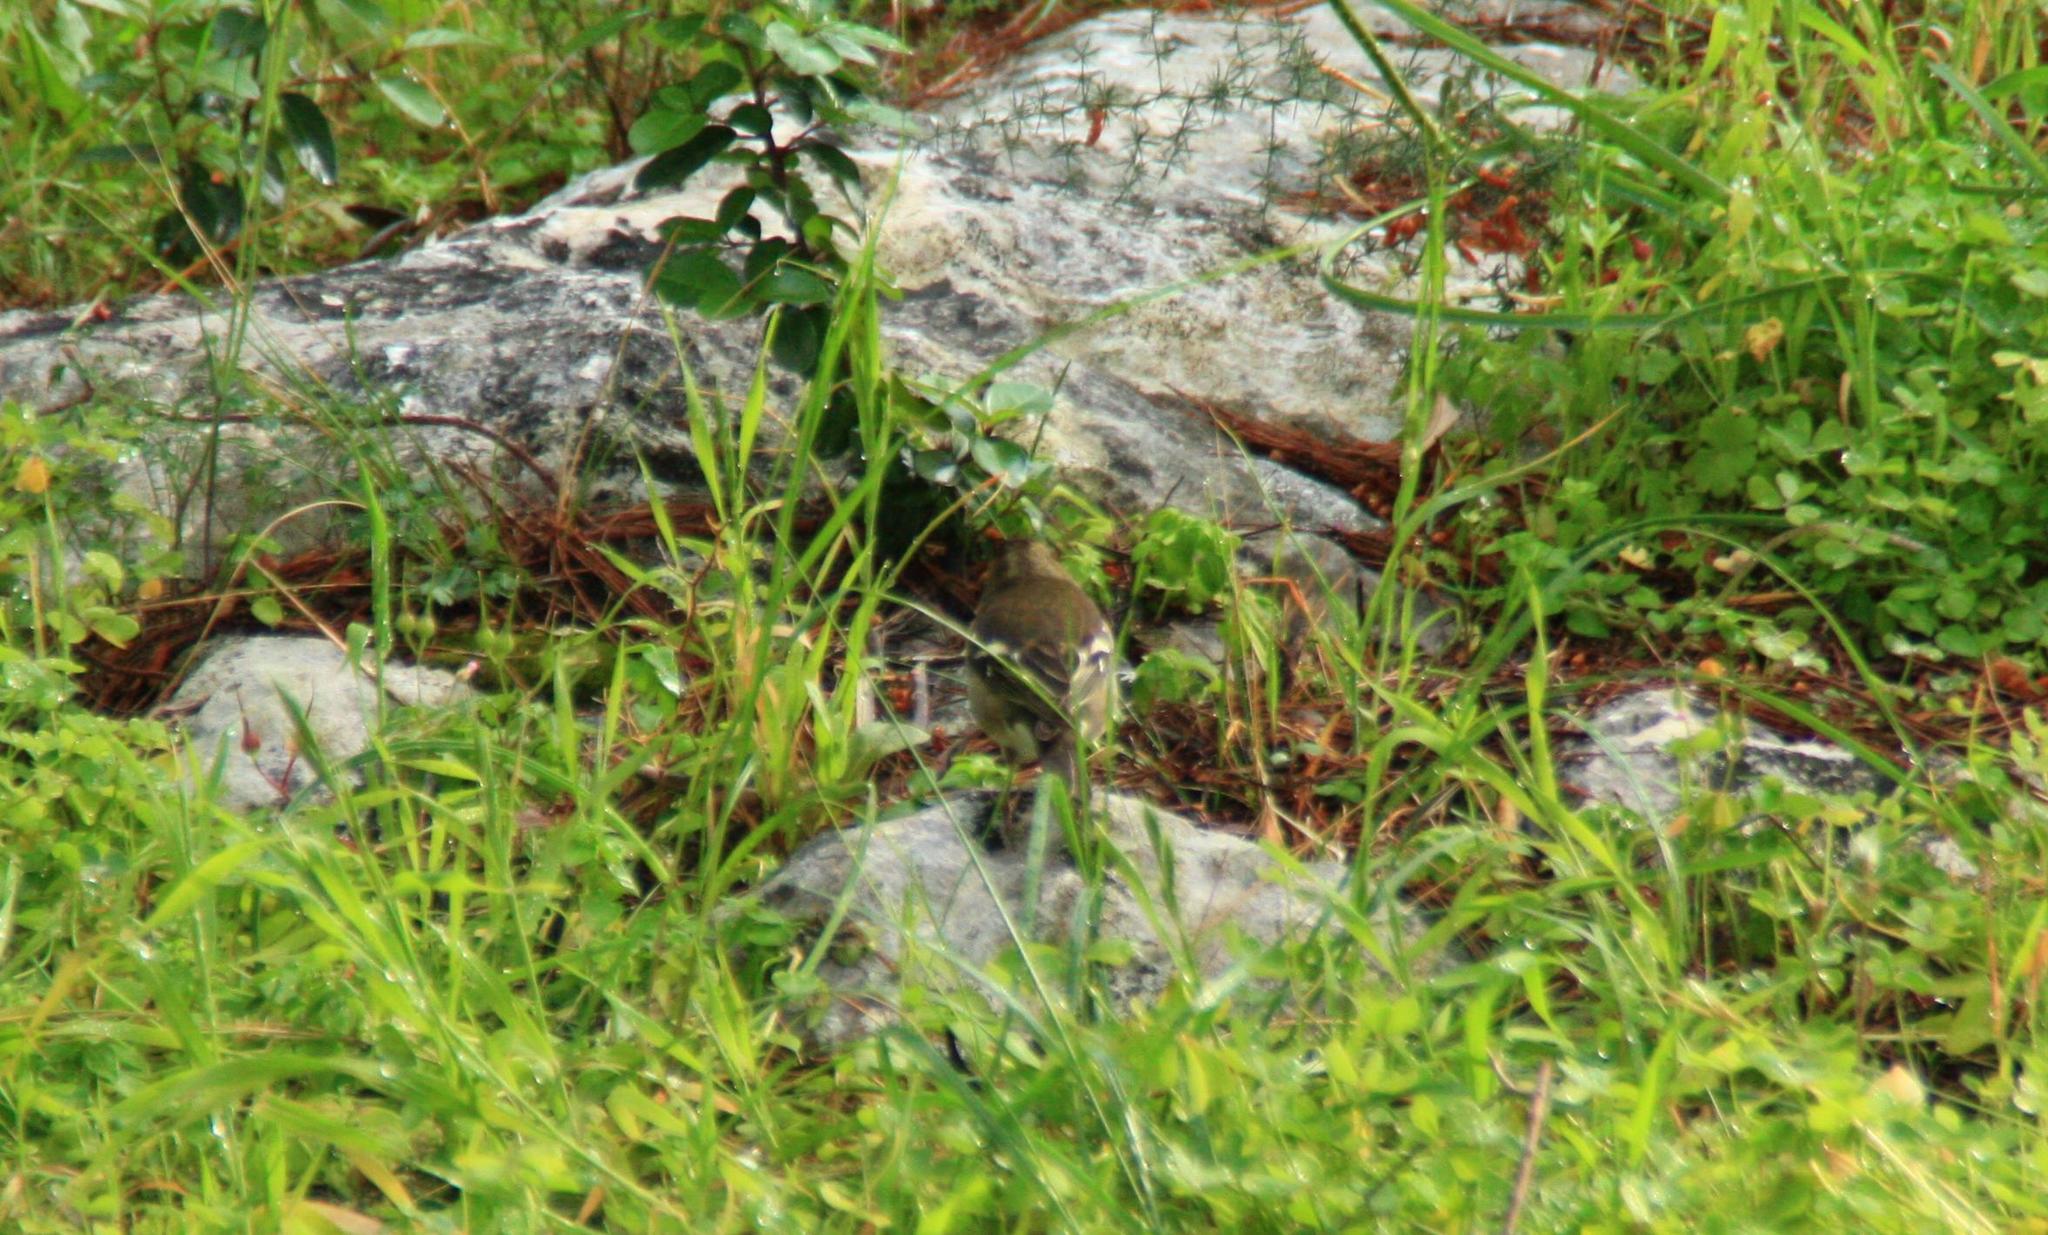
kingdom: Animalia
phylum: Chordata
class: Aves
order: Passeriformes
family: Fringillidae
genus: Fringilla
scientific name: Fringilla coelebs
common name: Common chaffinch
